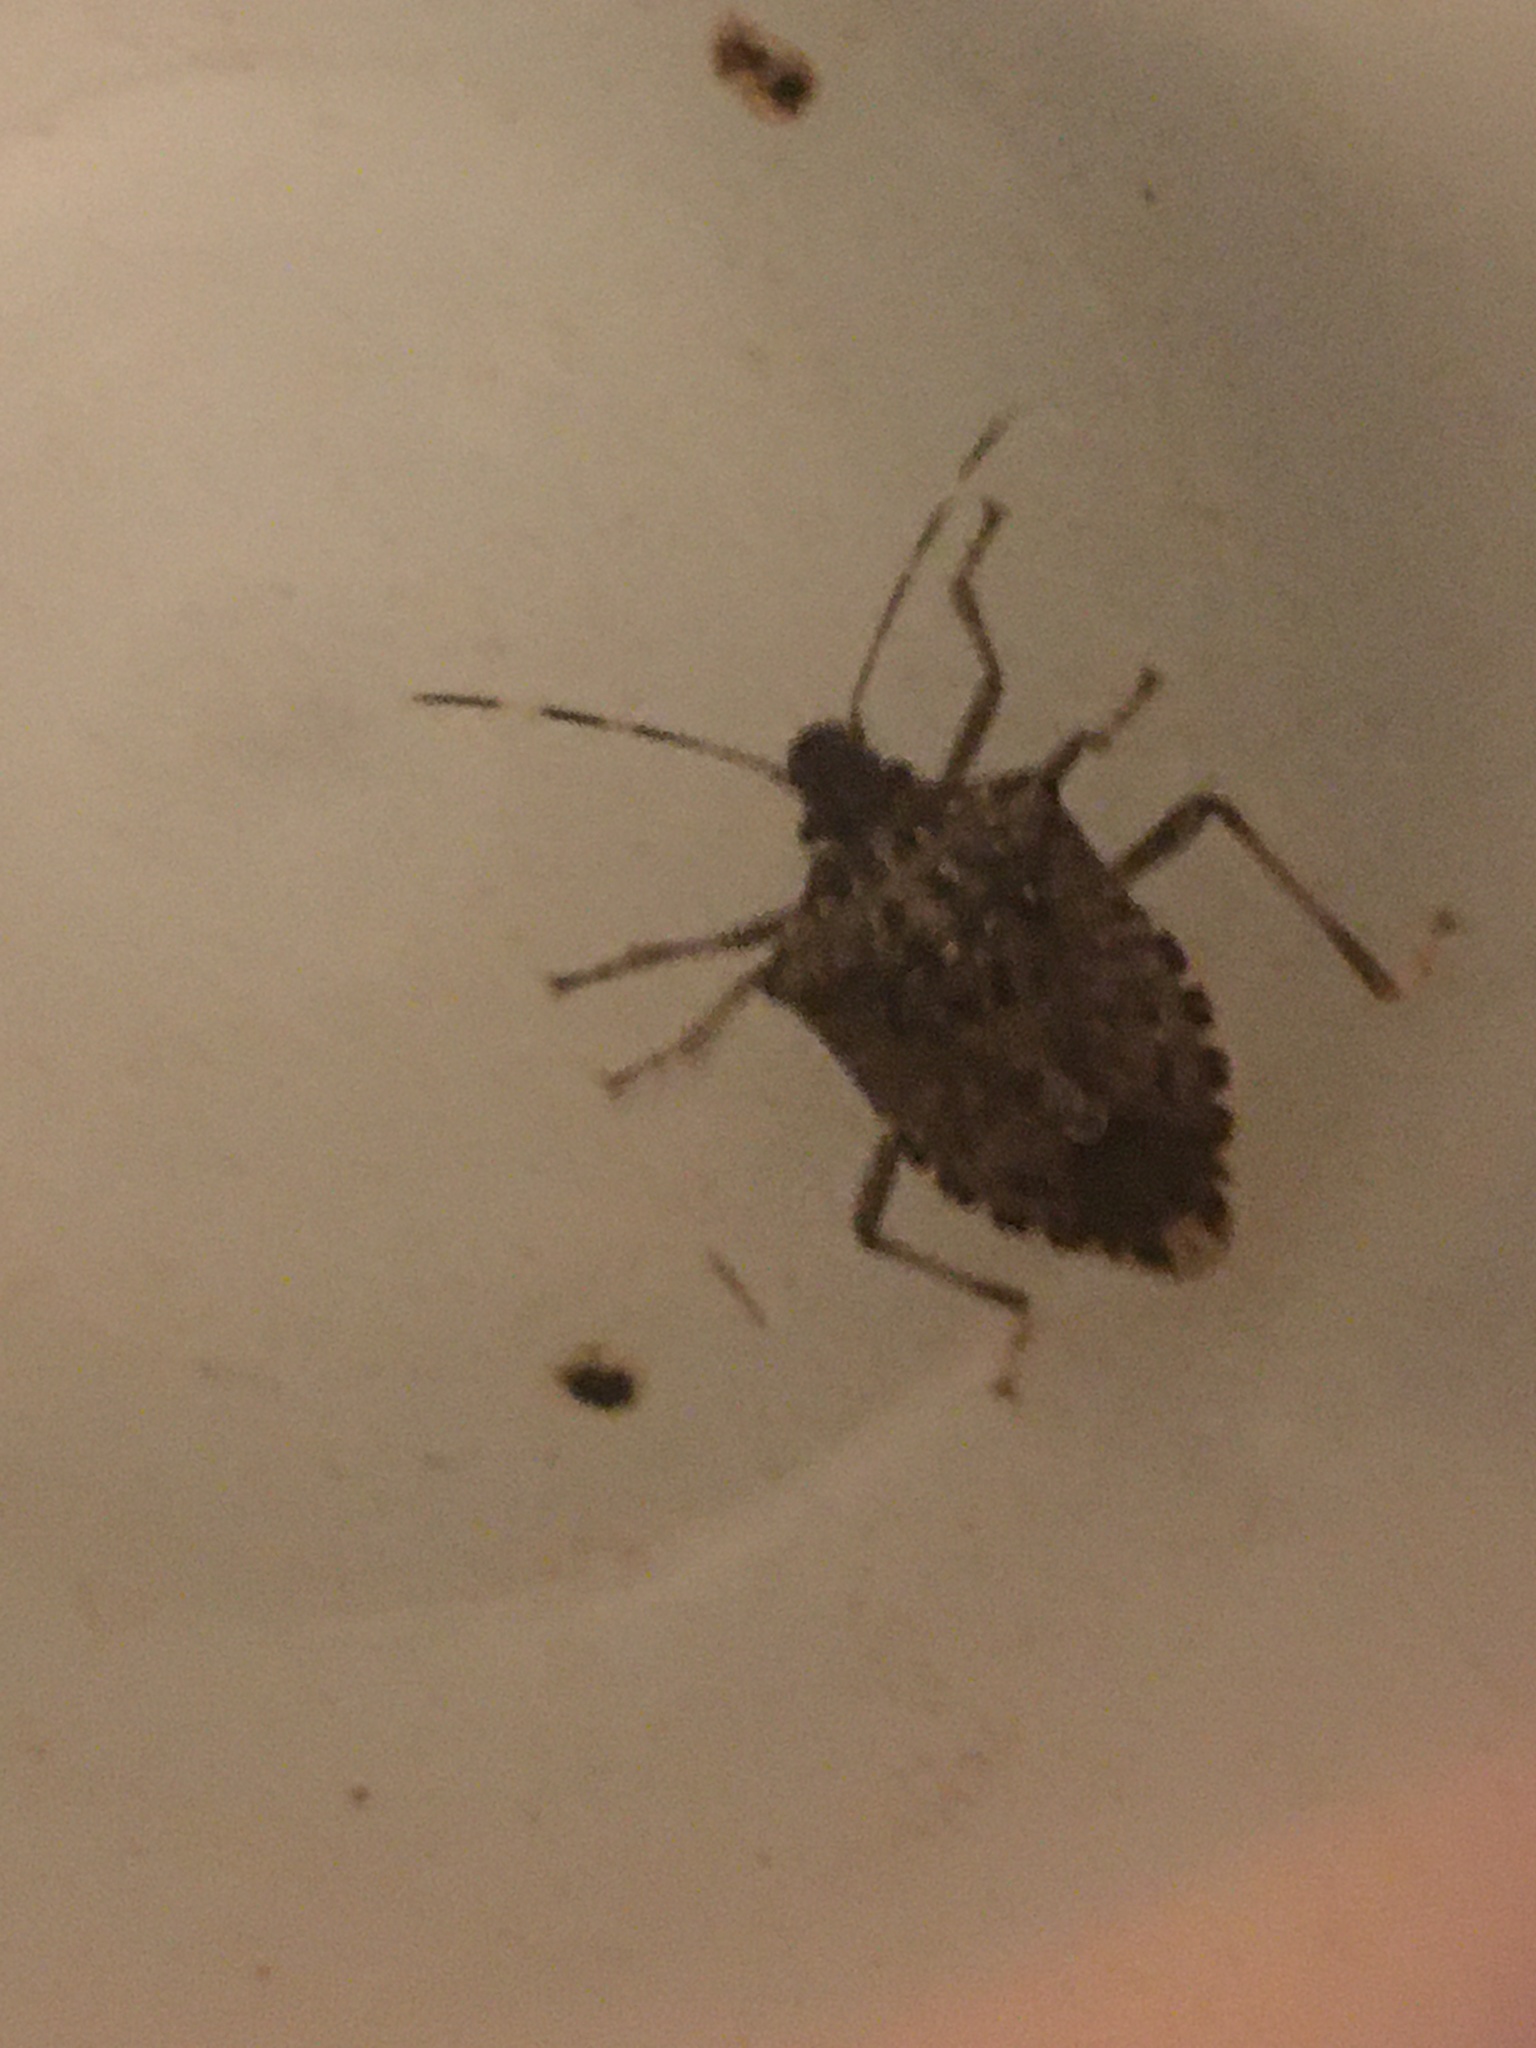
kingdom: Animalia
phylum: Arthropoda
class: Insecta
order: Hemiptera
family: Pentatomidae
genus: Halyomorpha
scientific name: Halyomorpha halys
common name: Brown marmorated stink bug
